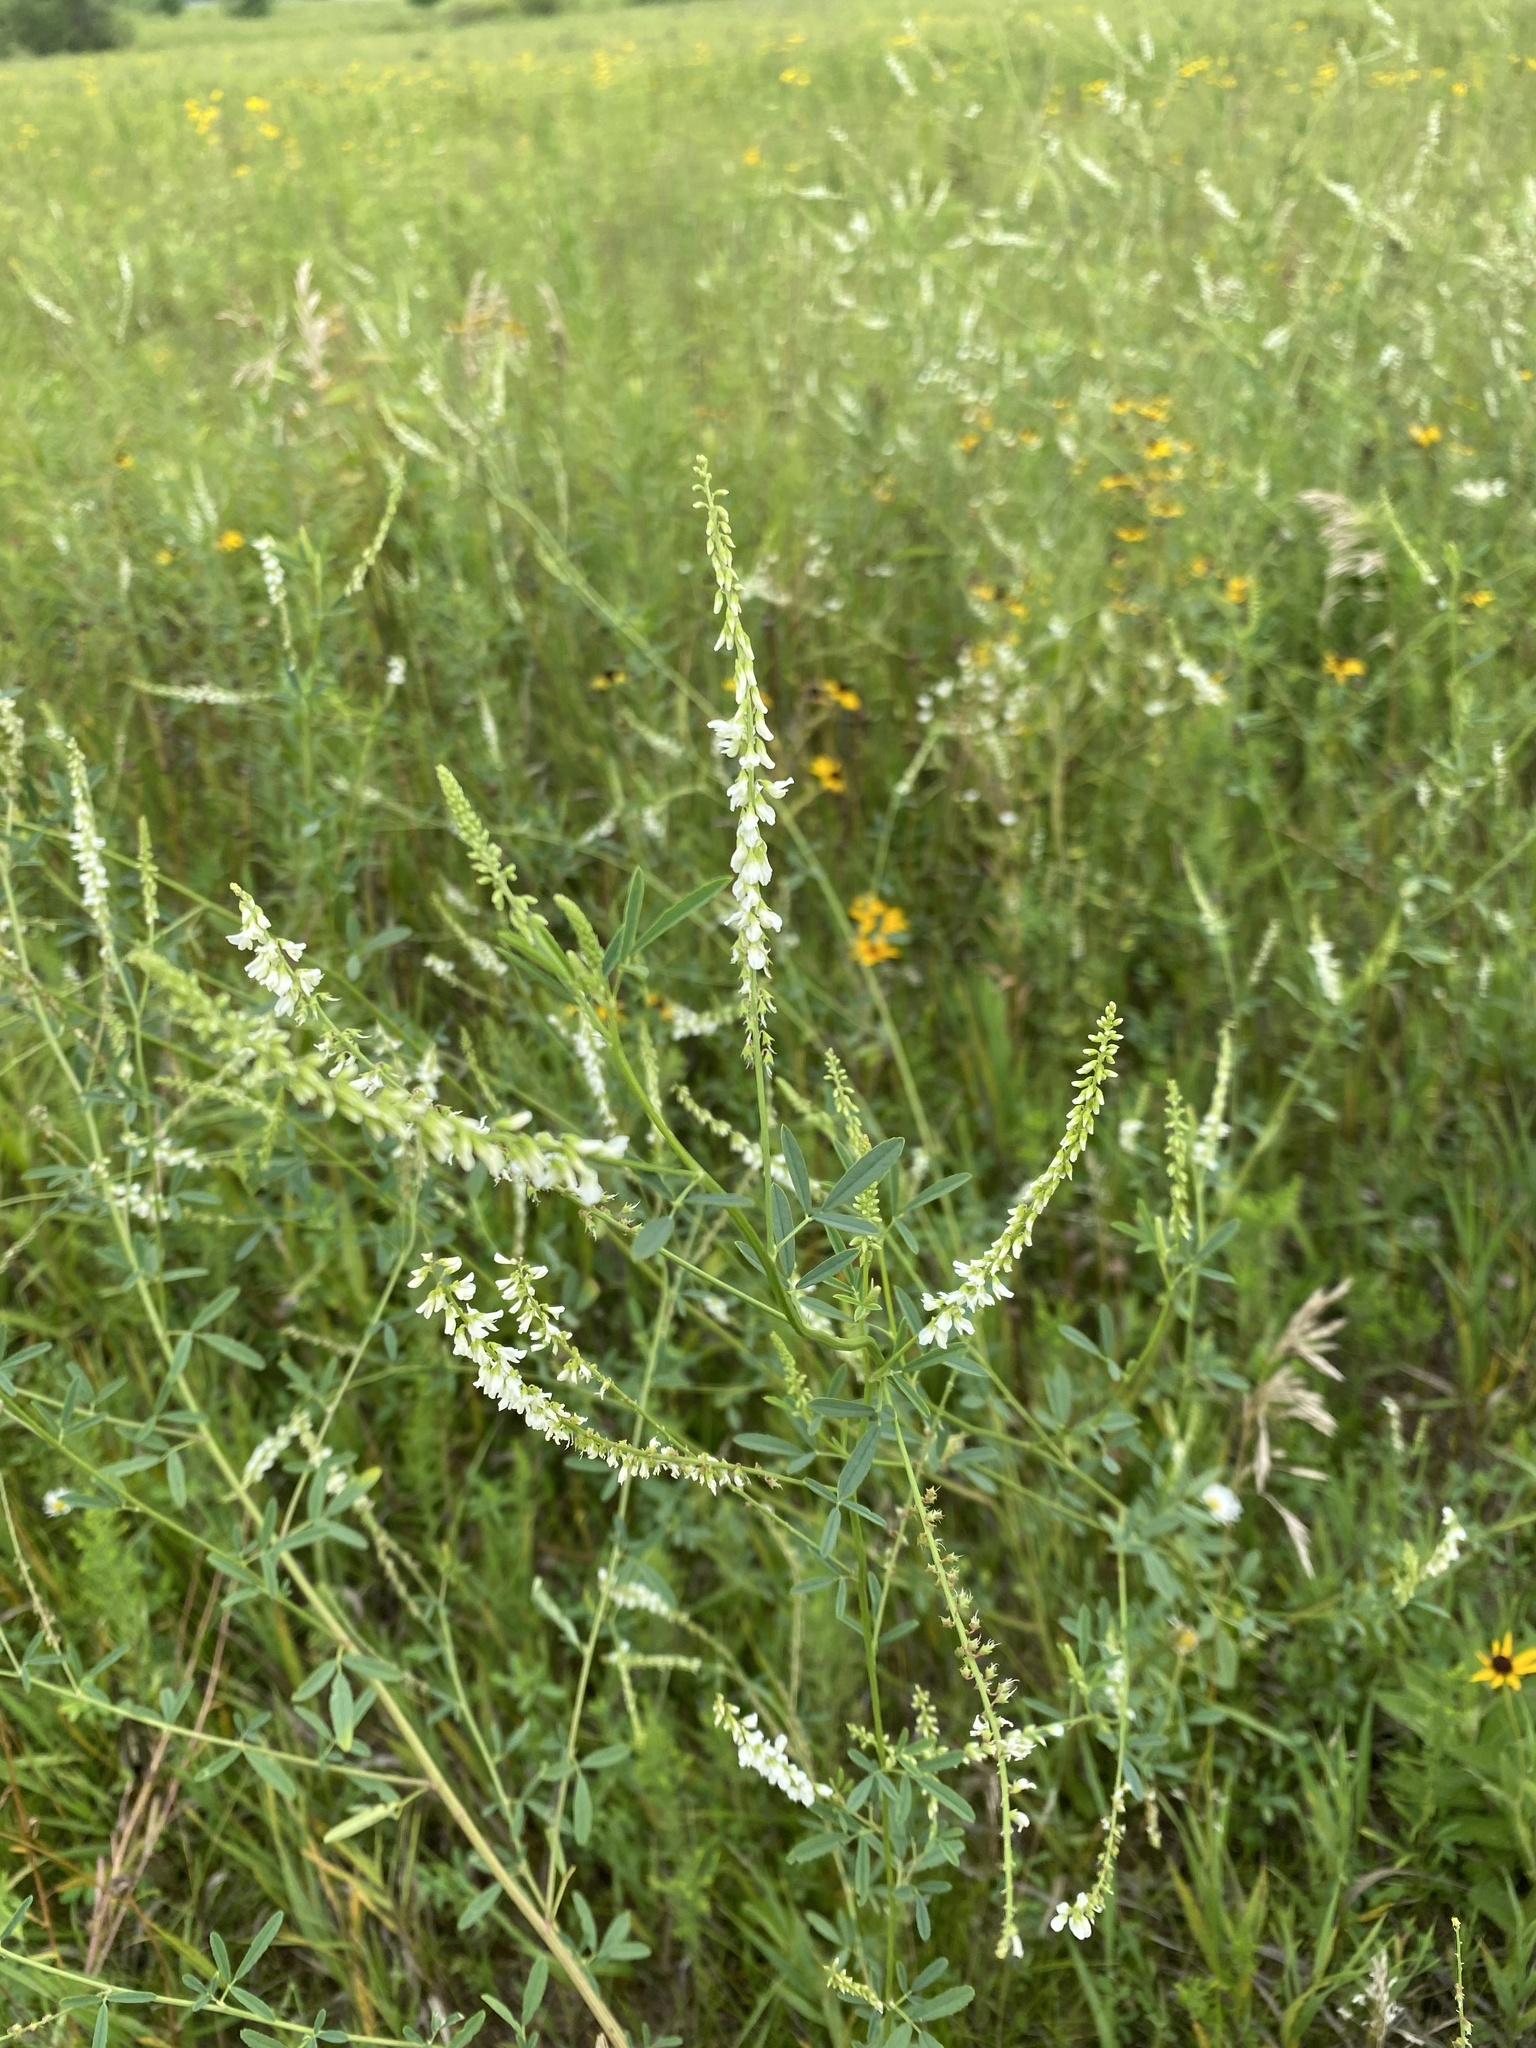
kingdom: Plantae
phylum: Tracheophyta
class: Magnoliopsida
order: Fabales
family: Fabaceae
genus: Melilotus
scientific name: Melilotus albus
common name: White melilot
